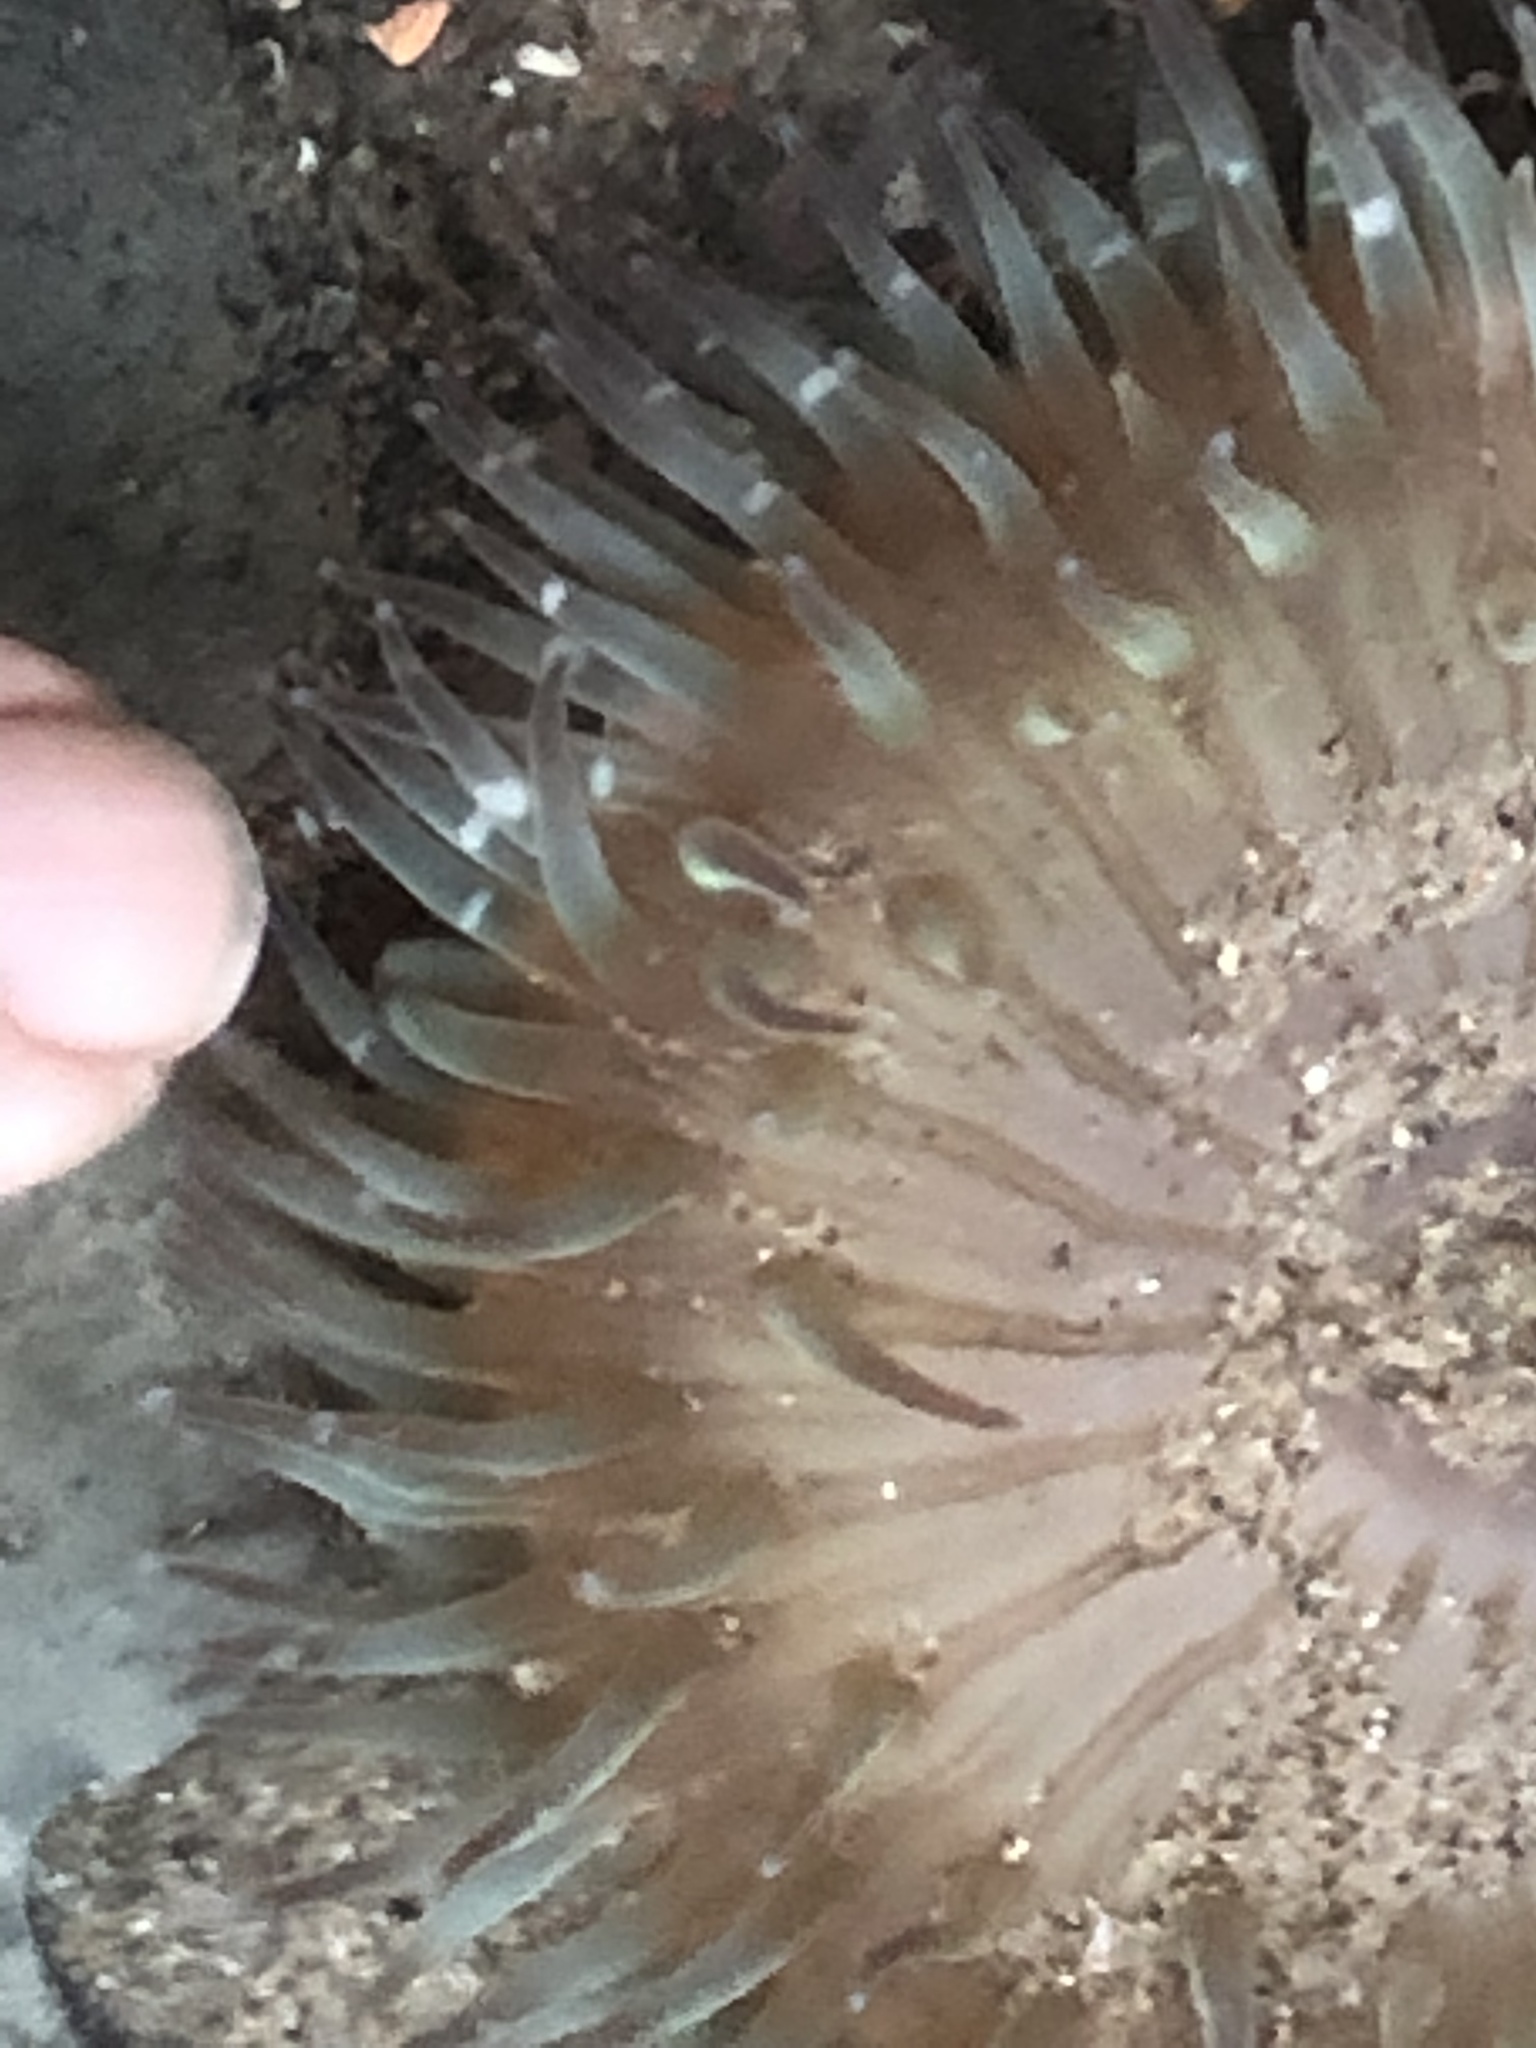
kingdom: Animalia
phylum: Cnidaria
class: Anthozoa
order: Actiniaria
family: Actiniidae
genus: Anthopleura
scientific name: Anthopleura sola
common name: Sun anemone
